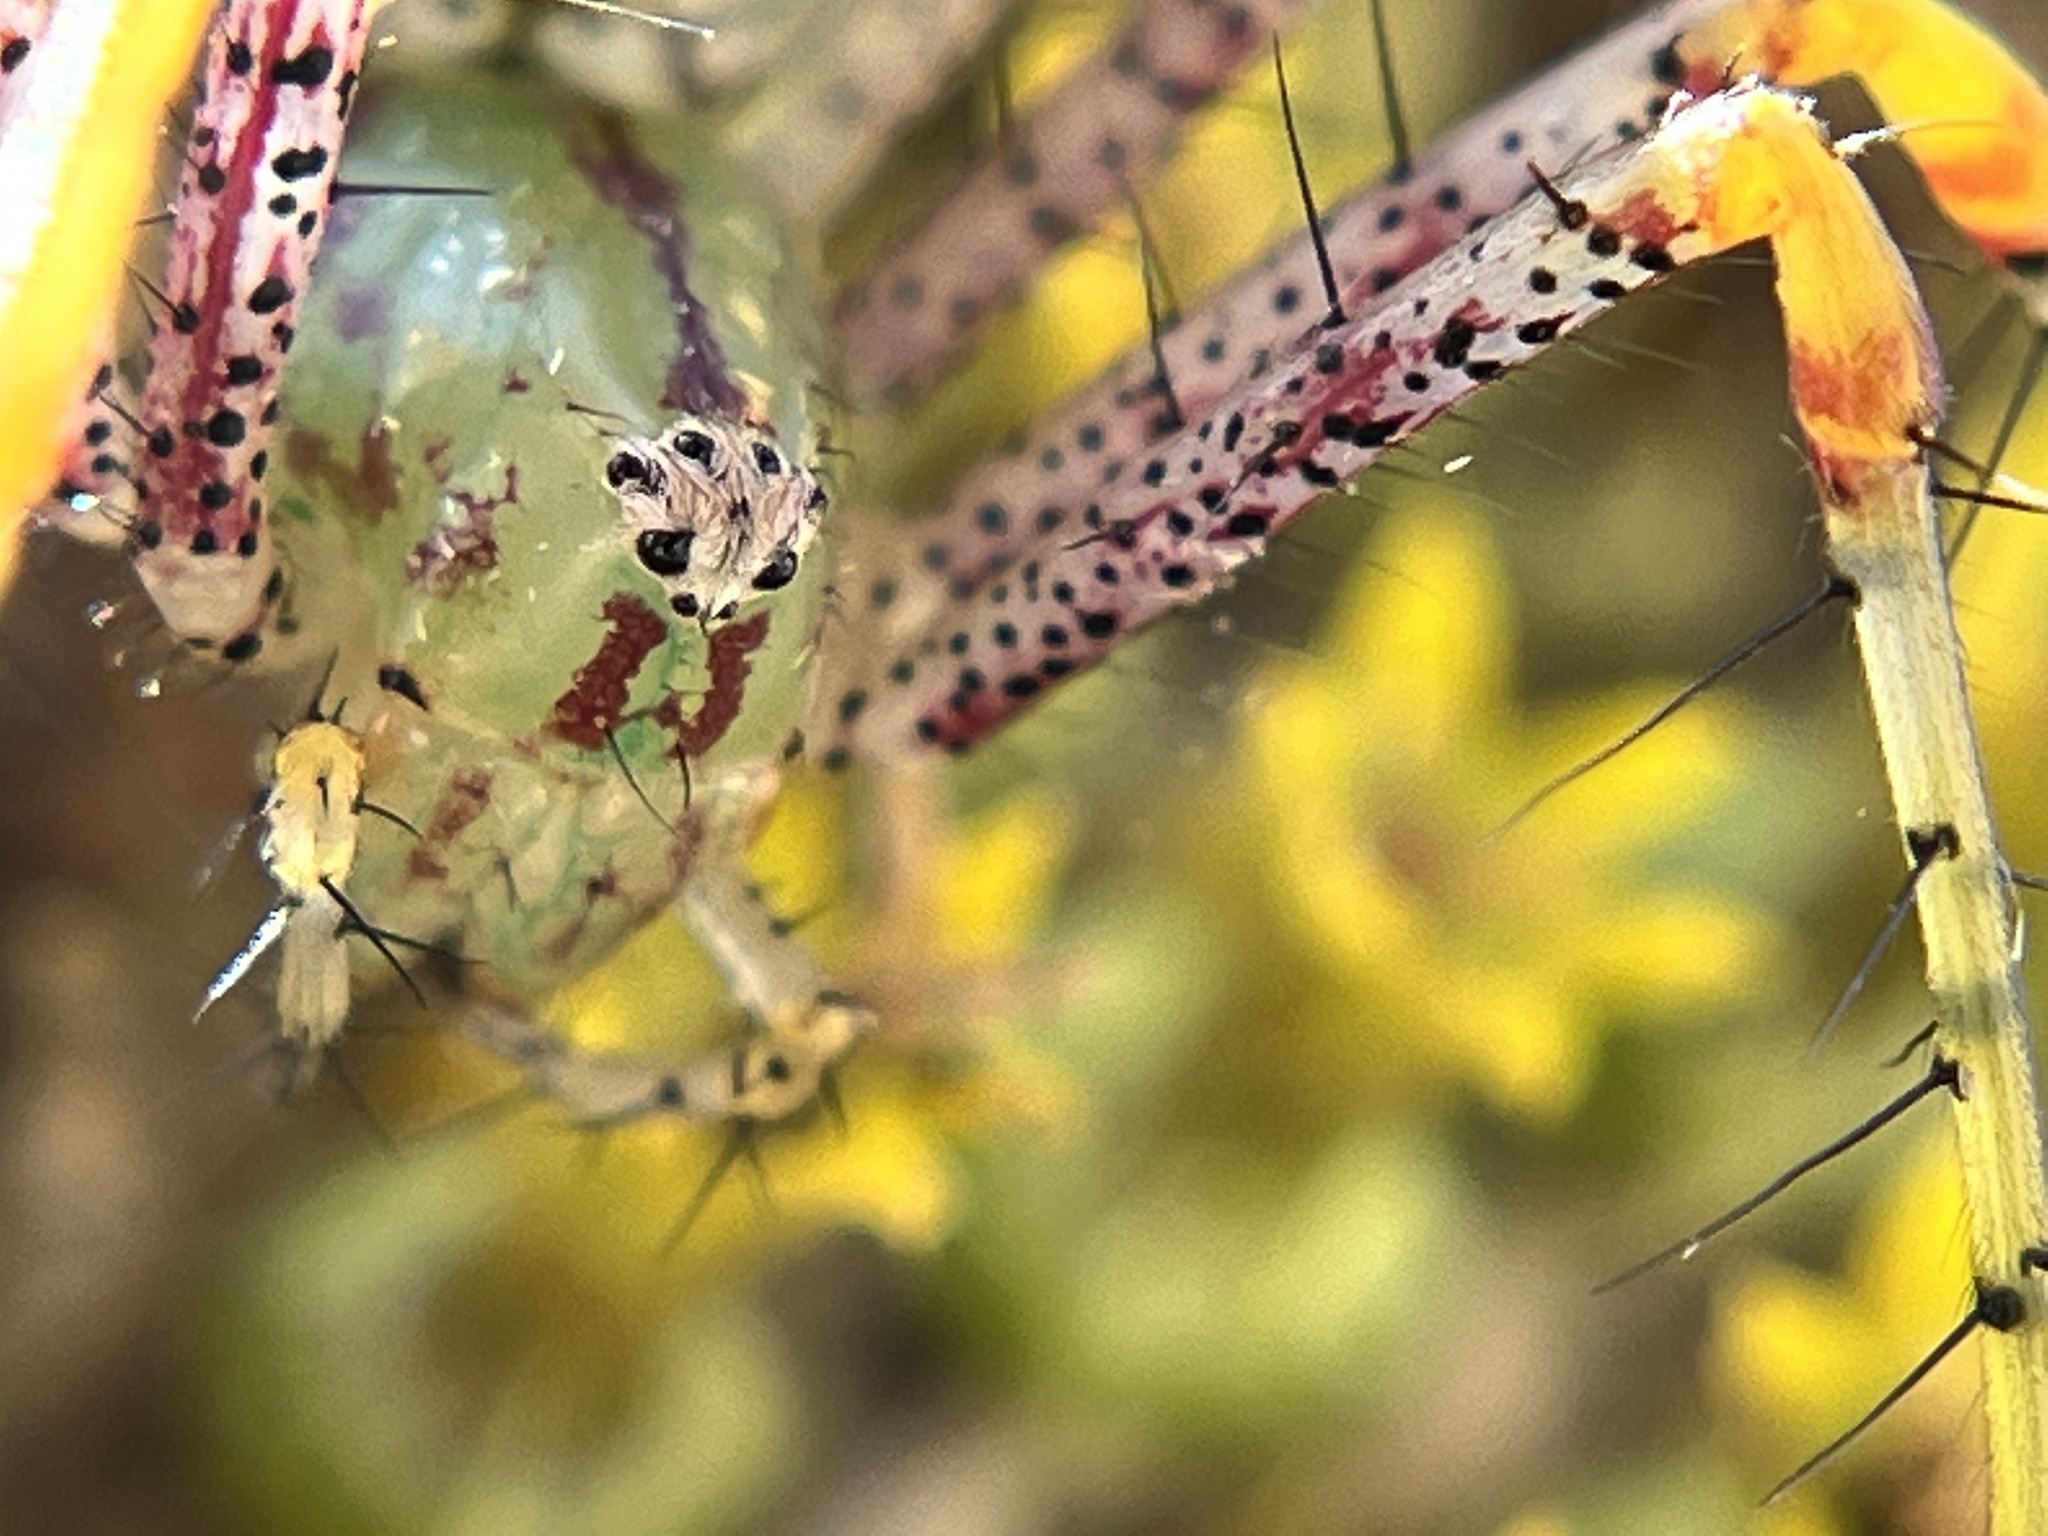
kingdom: Animalia
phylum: Arthropoda
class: Arachnida
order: Araneae
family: Oxyopidae
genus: Peucetia
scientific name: Peucetia viridans
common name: Lynx spiders
